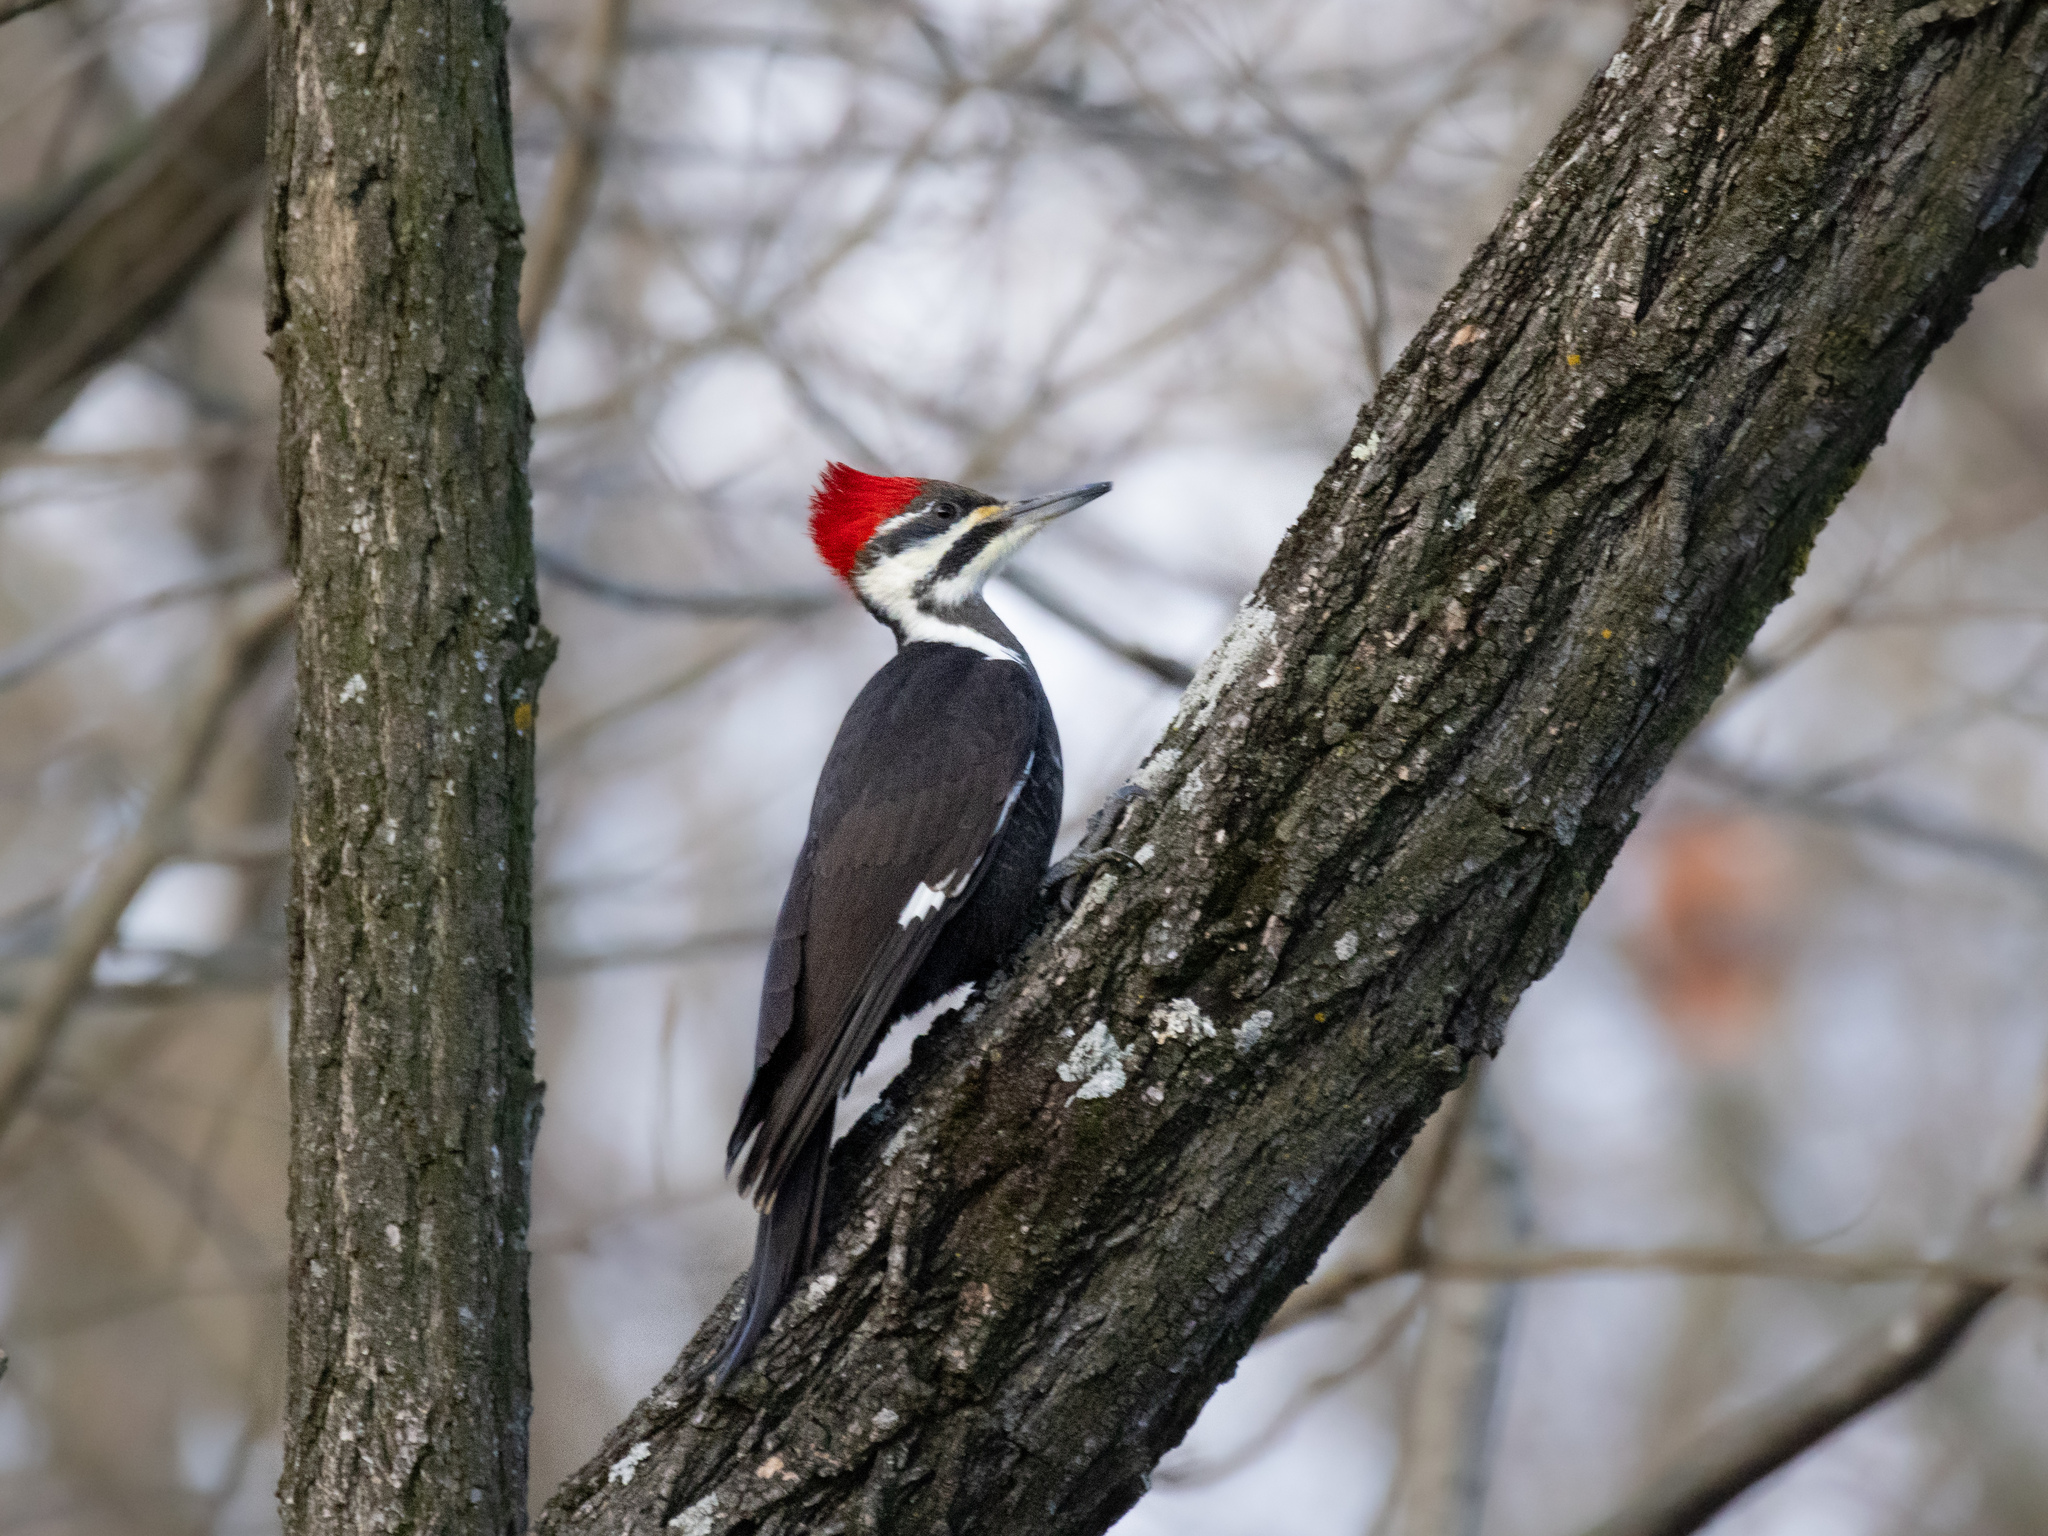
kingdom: Animalia
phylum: Chordata
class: Aves
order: Piciformes
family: Picidae
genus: Dryocopus
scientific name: Dryocopus pileatus
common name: Pileated woodpecker
